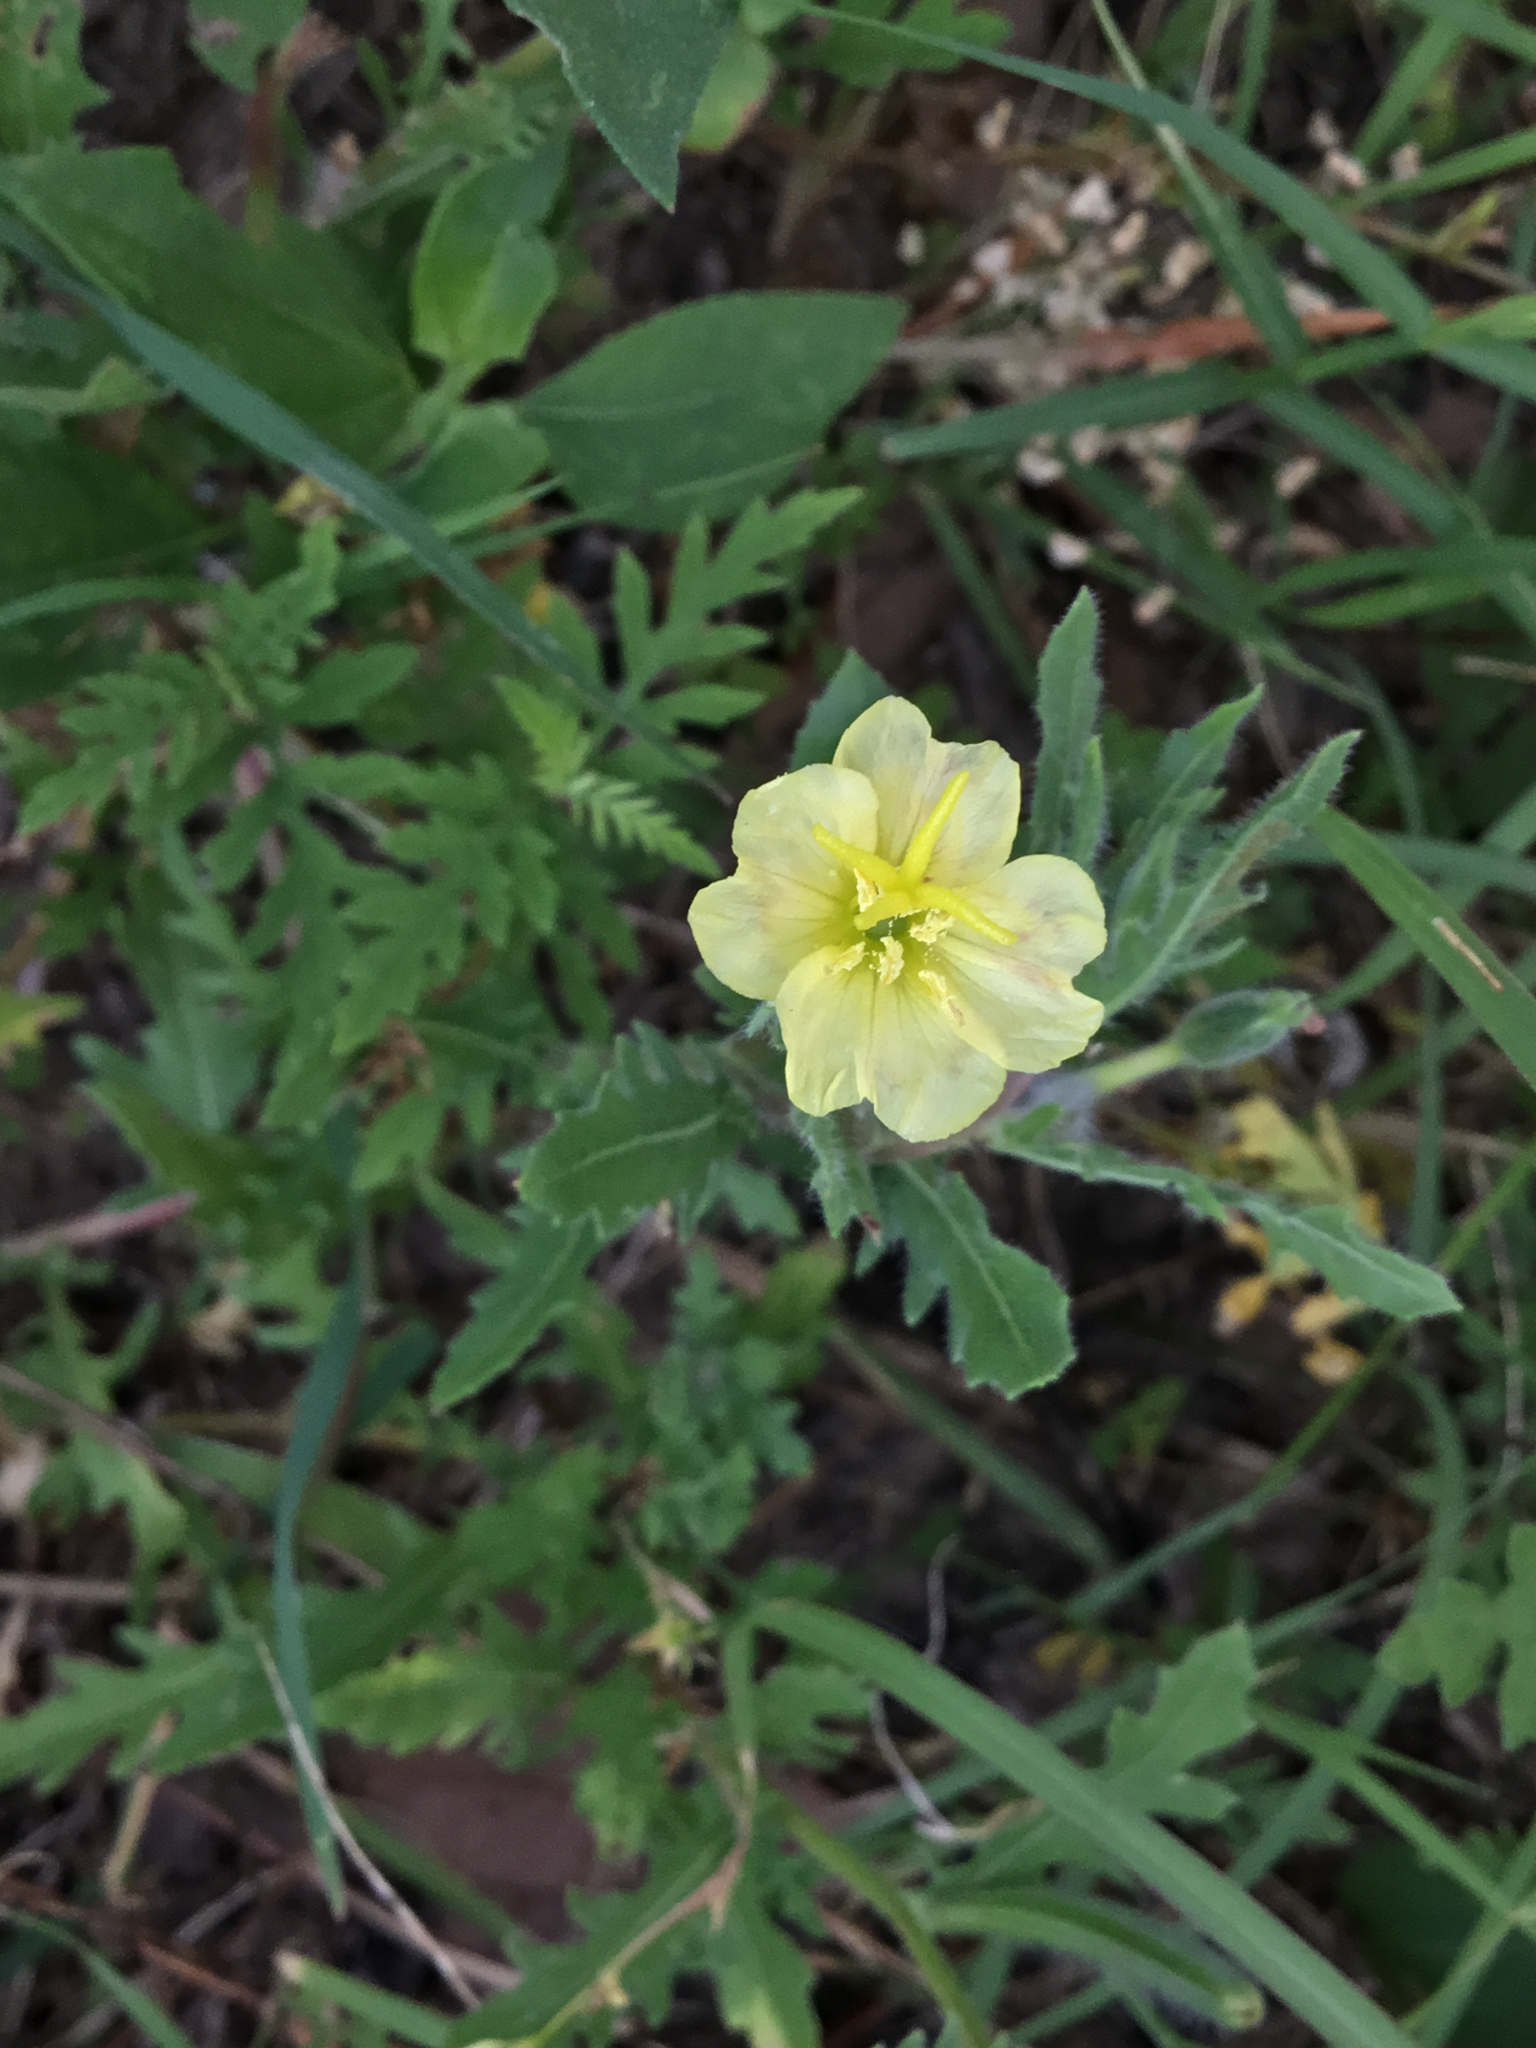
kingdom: Plantae
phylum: Tracheophyta
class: Magnoliopsida
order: Myrtales
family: Onagraceae
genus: Oenothera
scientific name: Oenothera laciniata
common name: Cut-leaved evening-primrose
